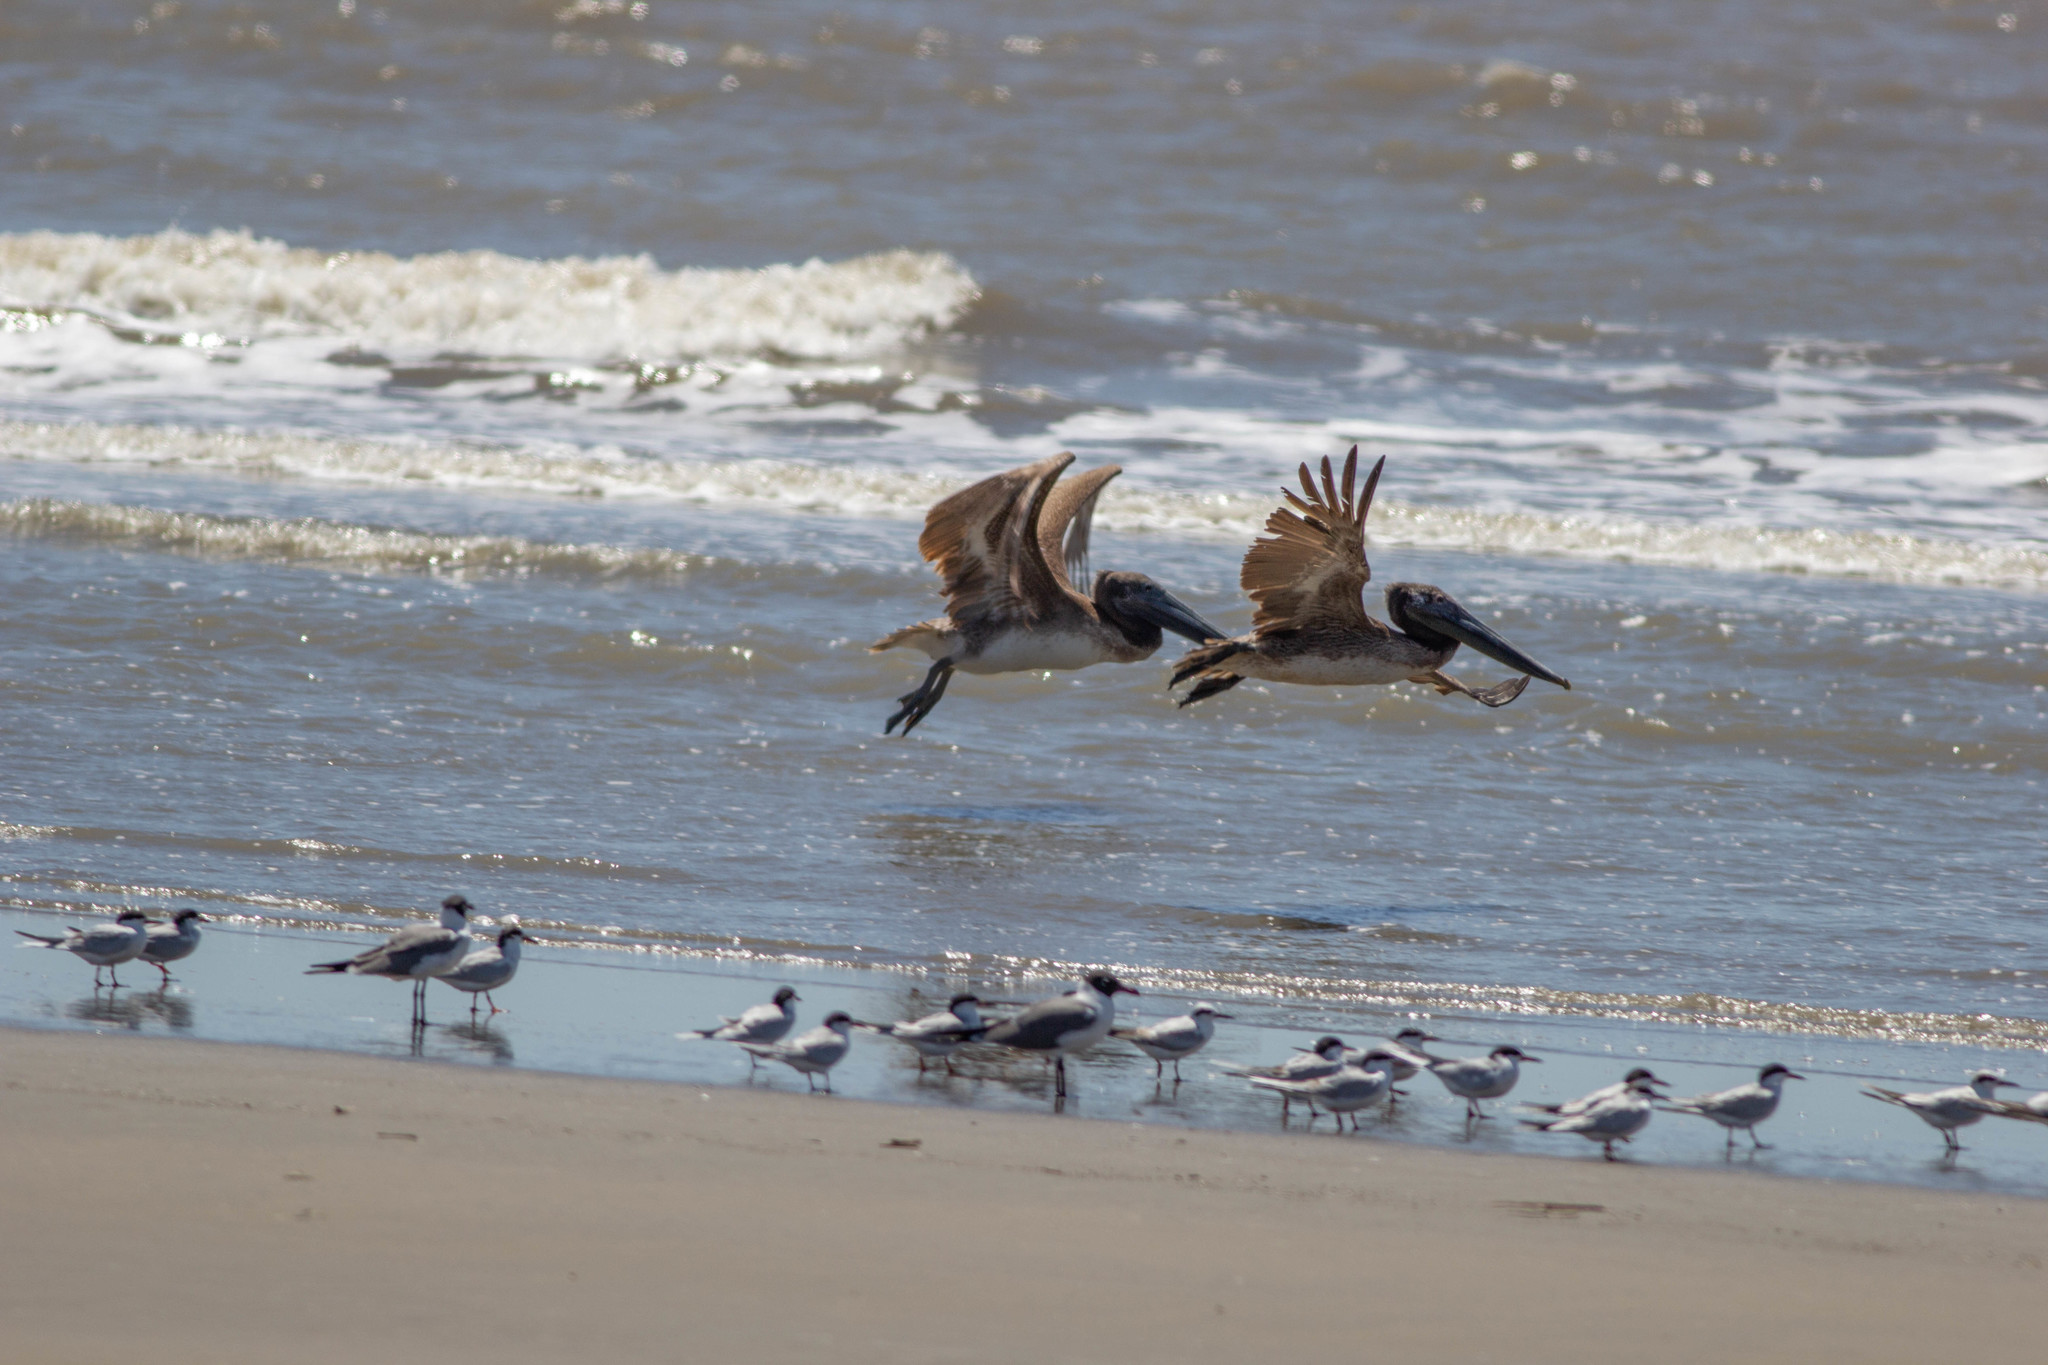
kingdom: Animalia
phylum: Chordata
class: Aves
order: Pelecaniformes
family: Pelecanidae
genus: Pelecanus
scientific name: Pelecanus occidentalis
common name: Brown pelican
